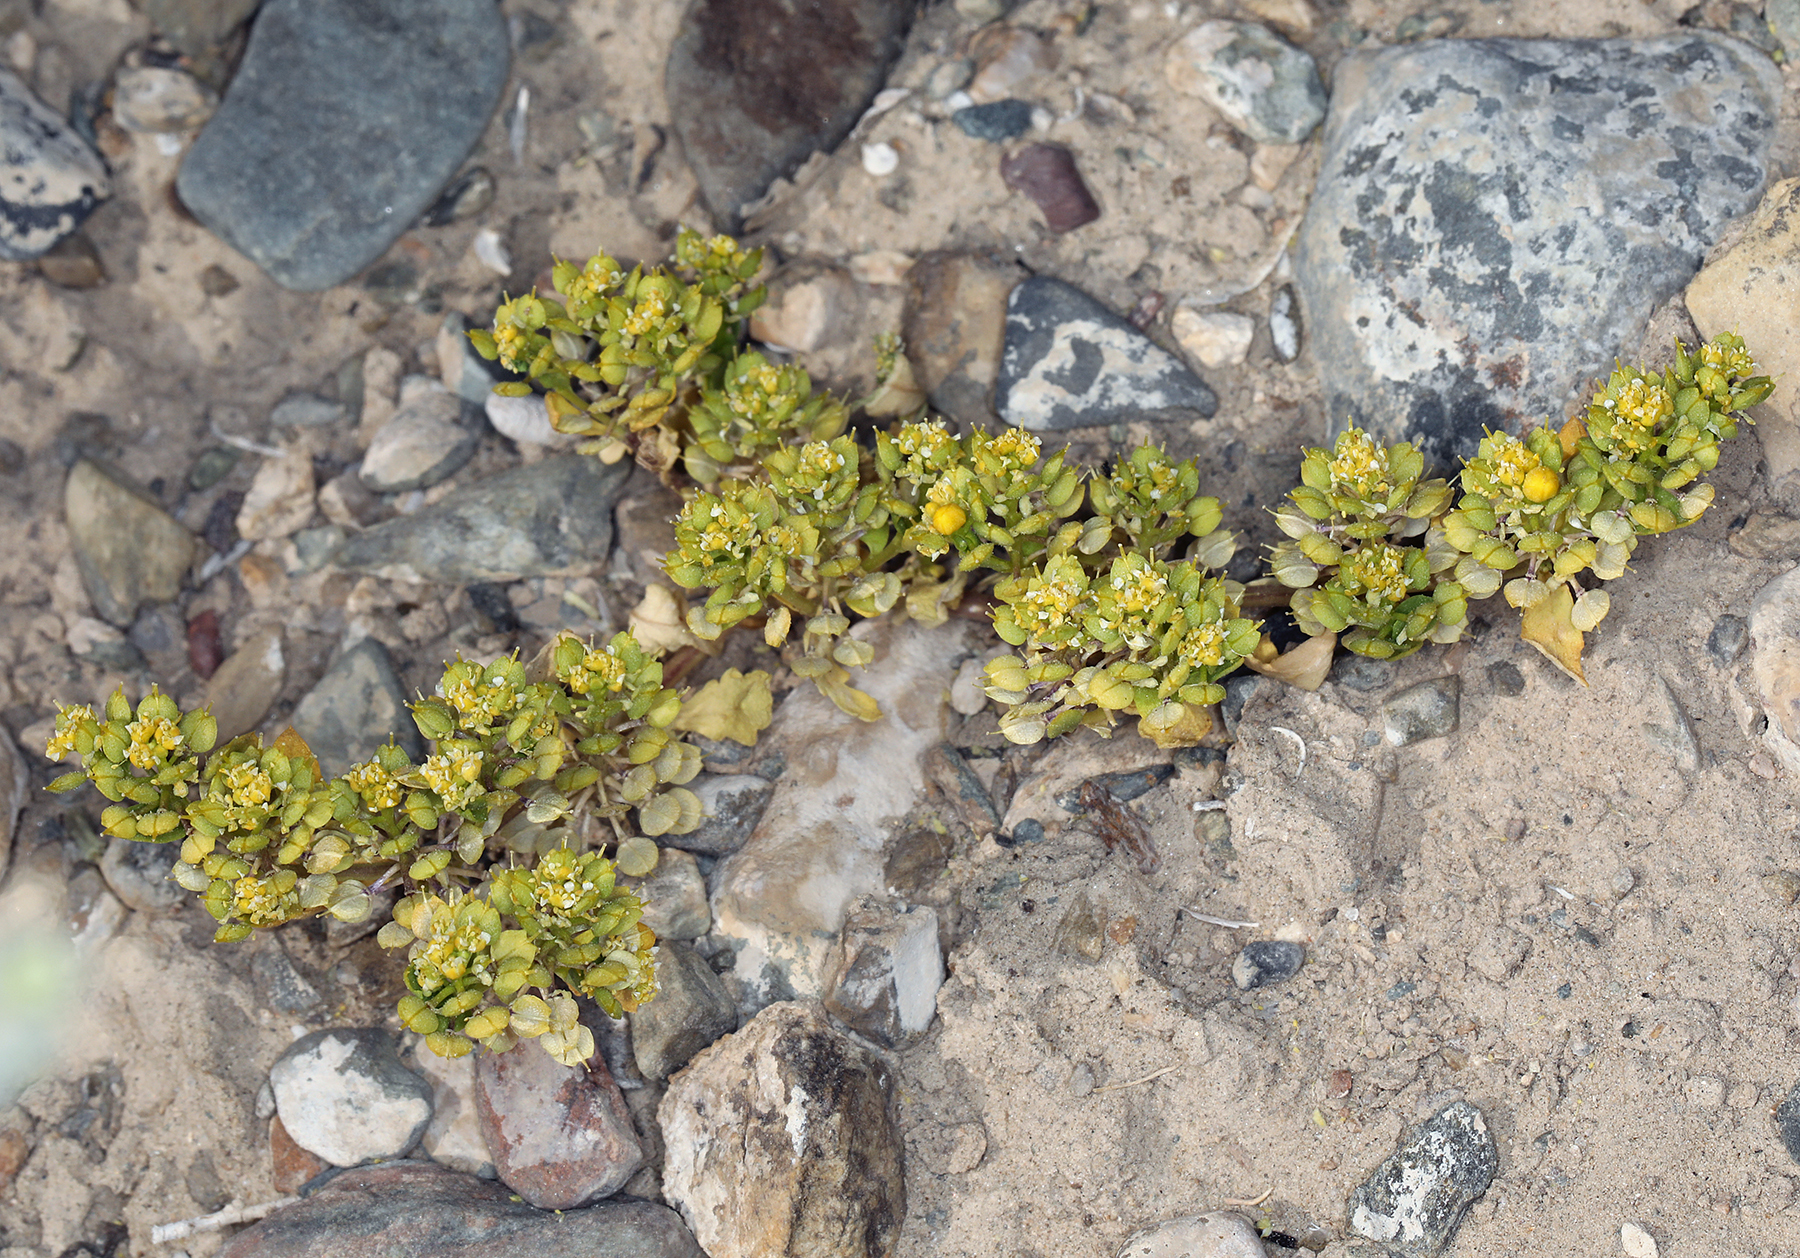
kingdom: Plantae
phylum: Tracheophyta
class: Magnoliopsida
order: Brassicales
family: Brassicaceae
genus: Lepidium
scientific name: Lepidium flavum
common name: Yellow pepperwort
